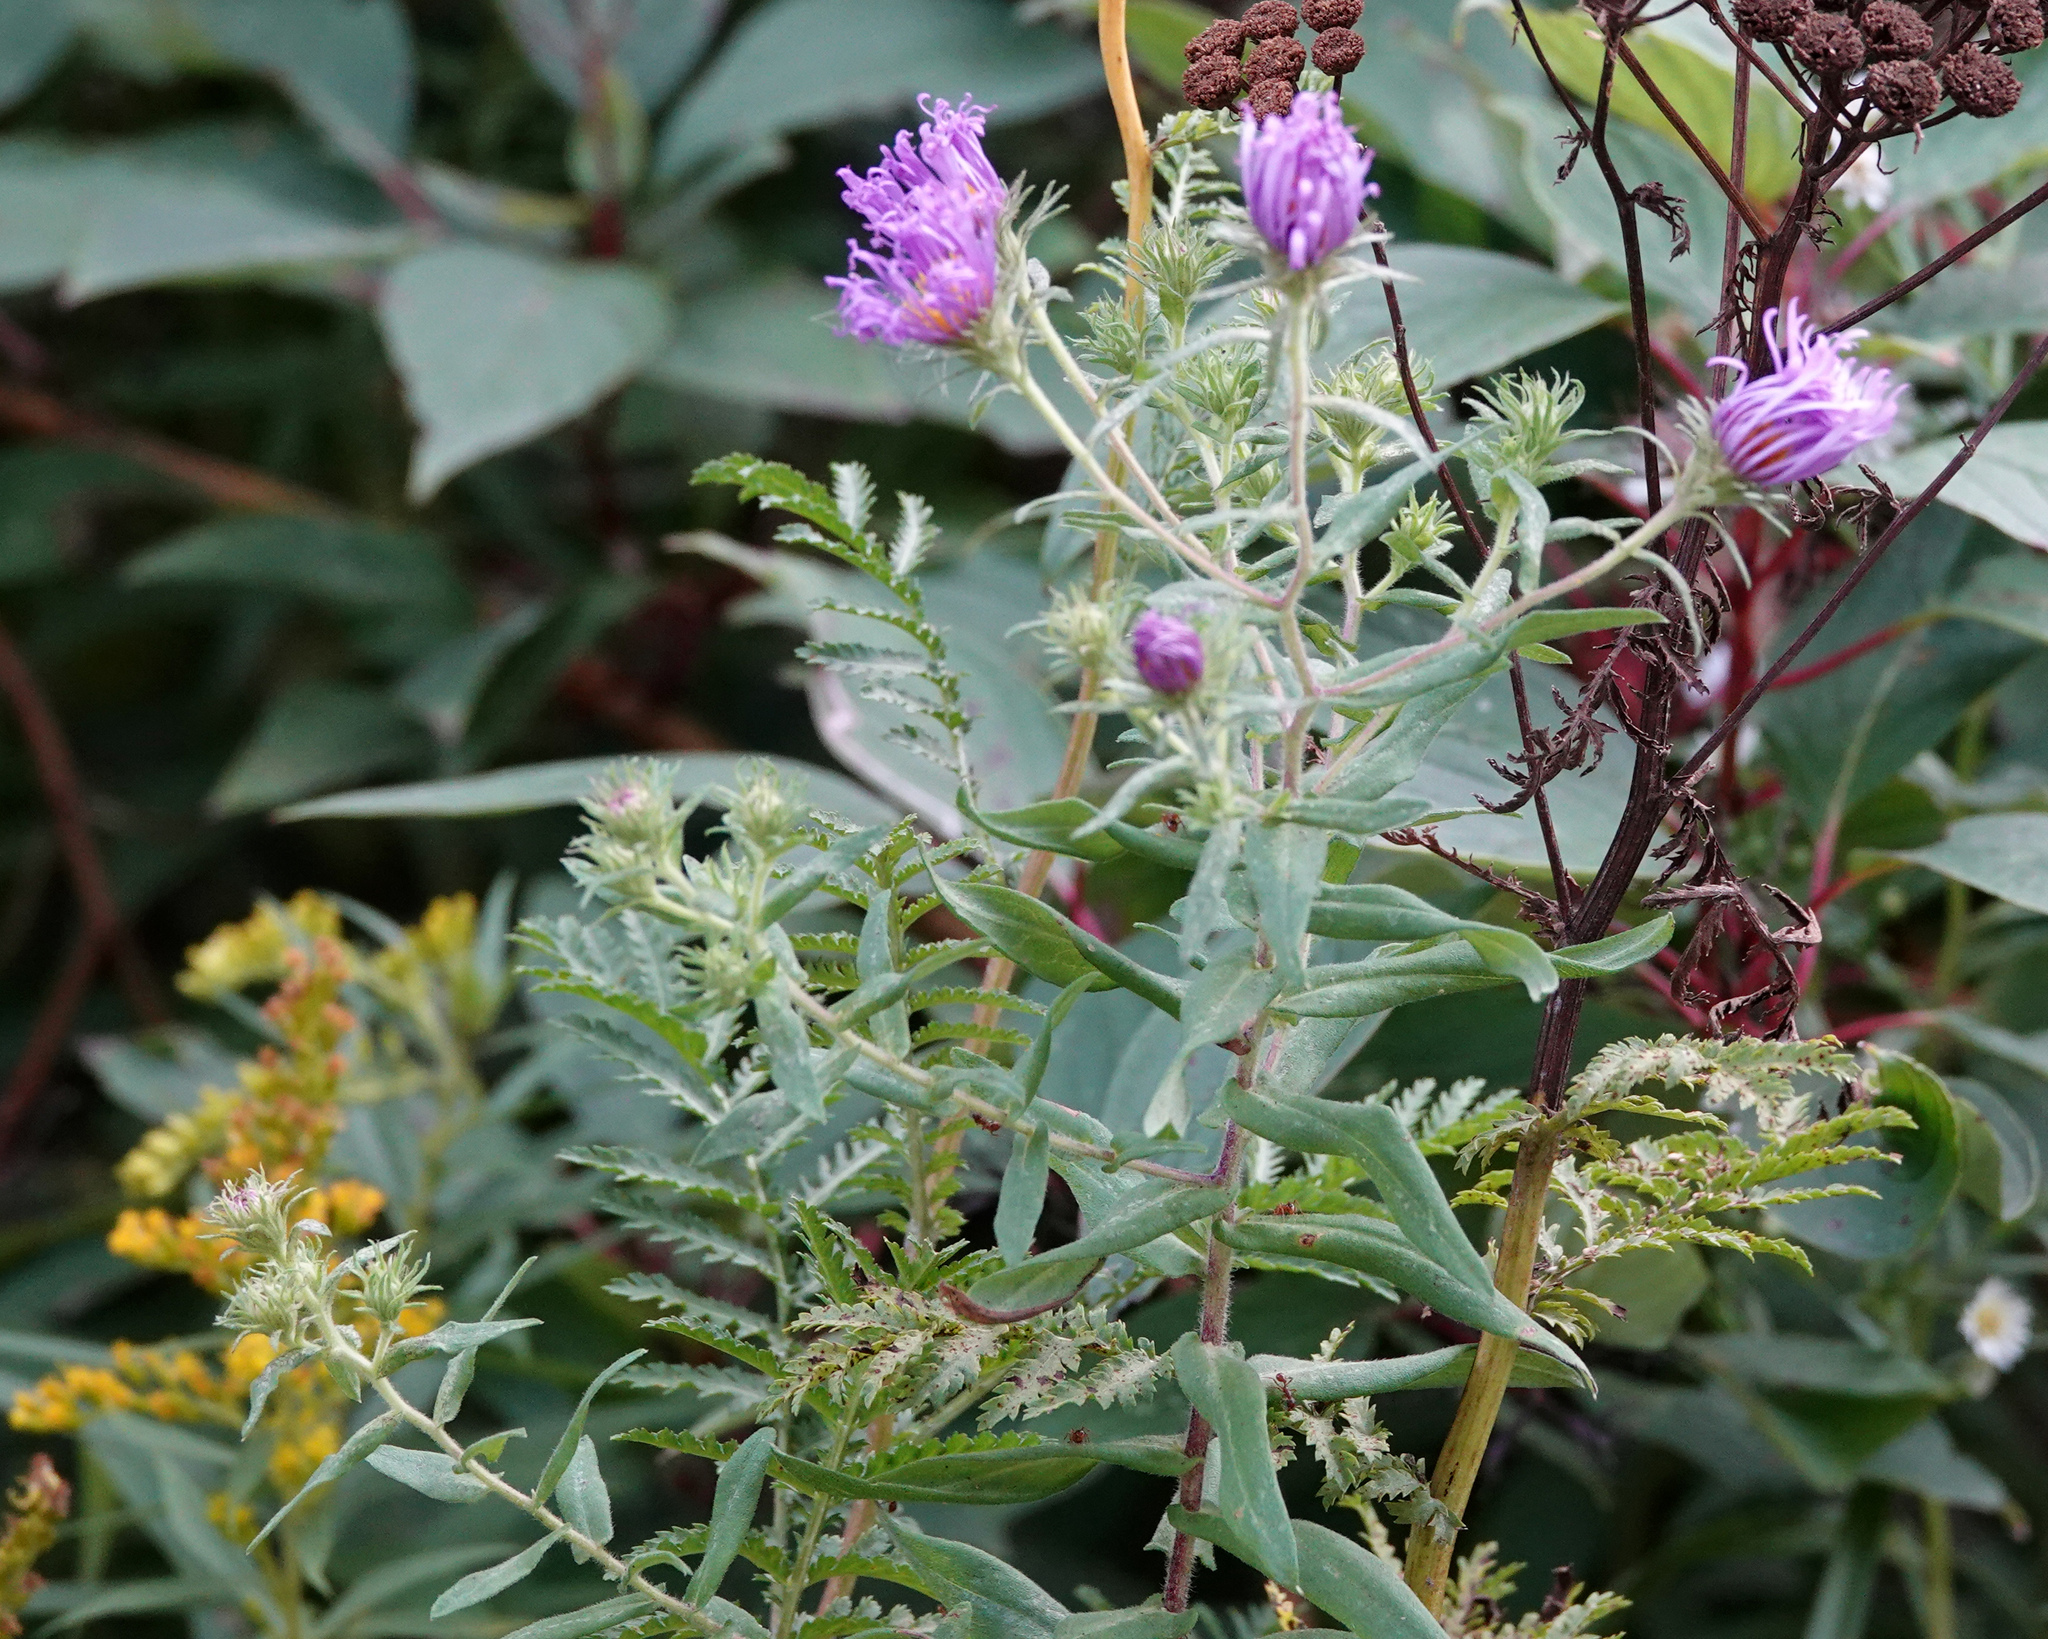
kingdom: Plantae
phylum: Tracheophyta
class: Magnoliopsida
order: Asterales
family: Asteraceae
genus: Symphyotrichum
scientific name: Symphyotrichum novae-angliae
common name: Michaelmas daisy
